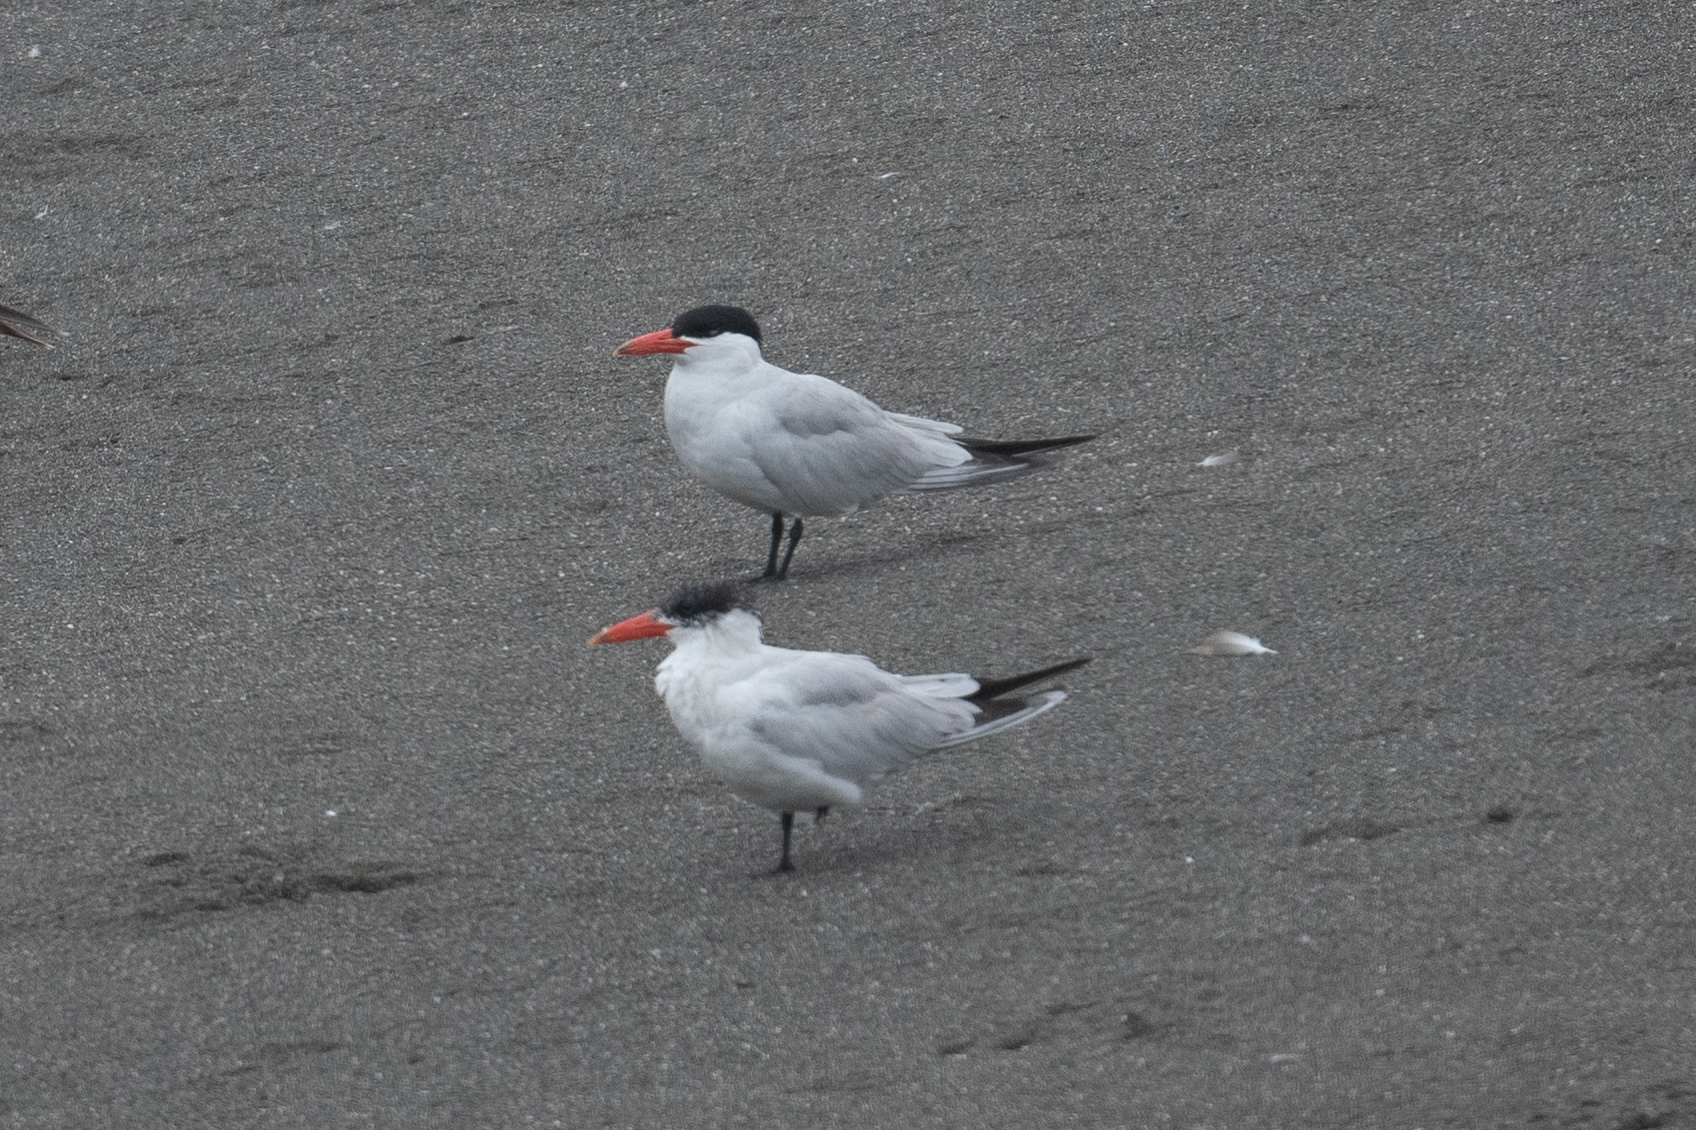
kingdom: Animalia
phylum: Chordata
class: Aves
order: Charadriiformes
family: Laridae
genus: Hydroprogne
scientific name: Hydroprogne caspia
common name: Caspian tern
